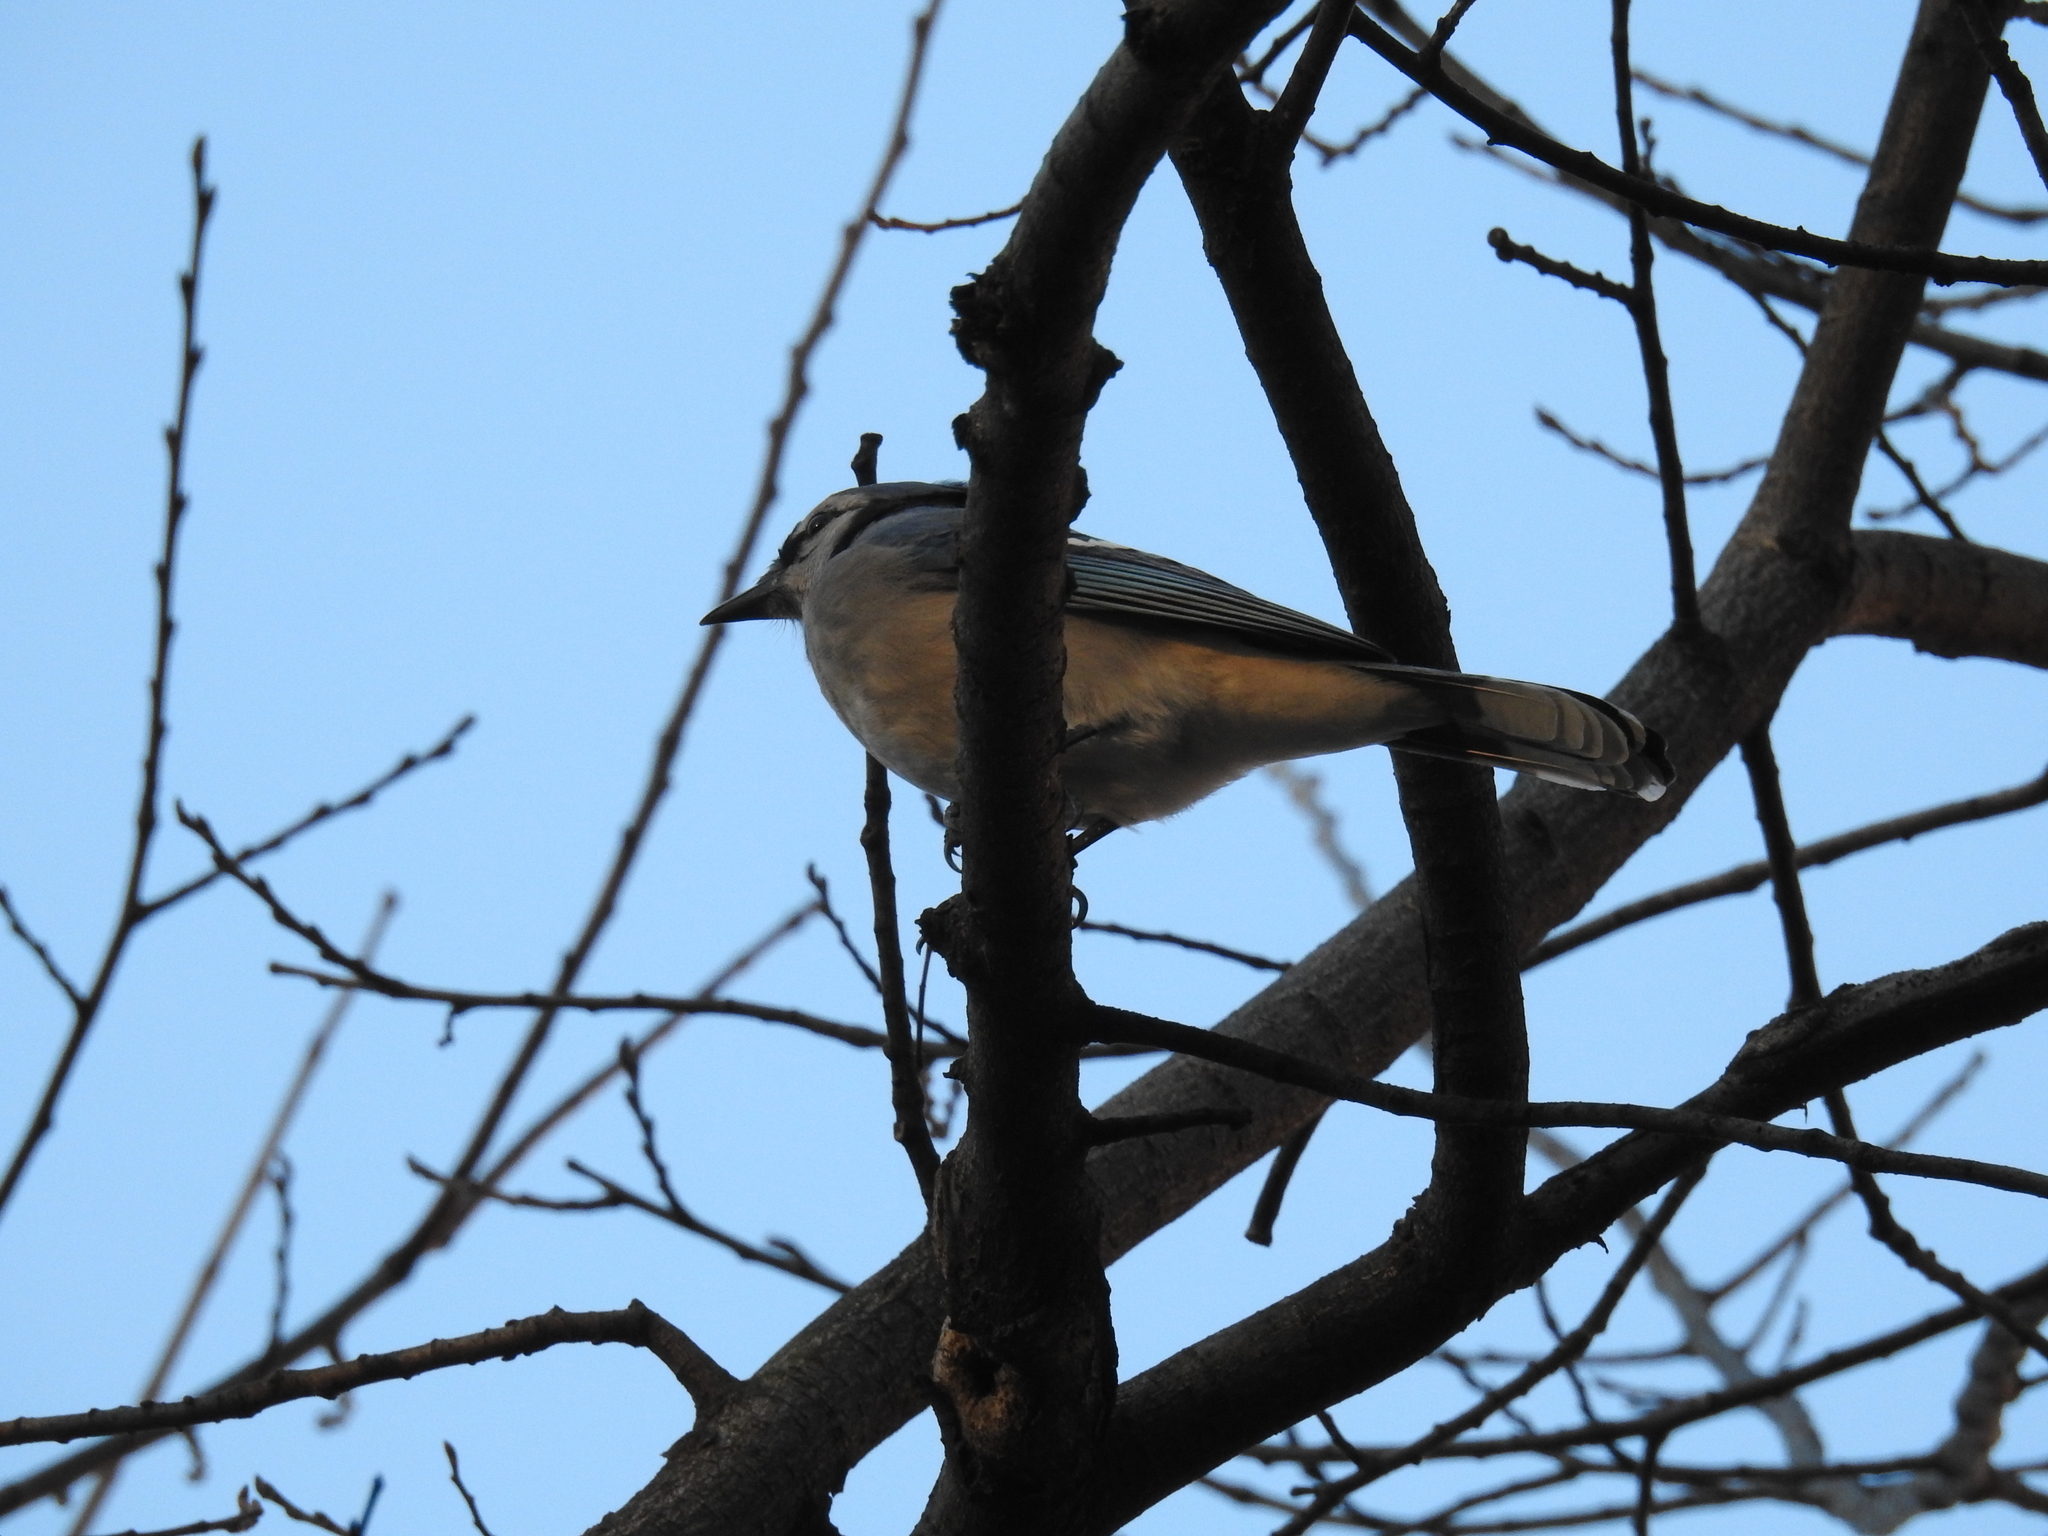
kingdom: Animalia
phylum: Chordata
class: Aves
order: Passeriformes
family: Corvidae
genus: Cyanocitta
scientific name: Cyanocitta cristata
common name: Blue jay
